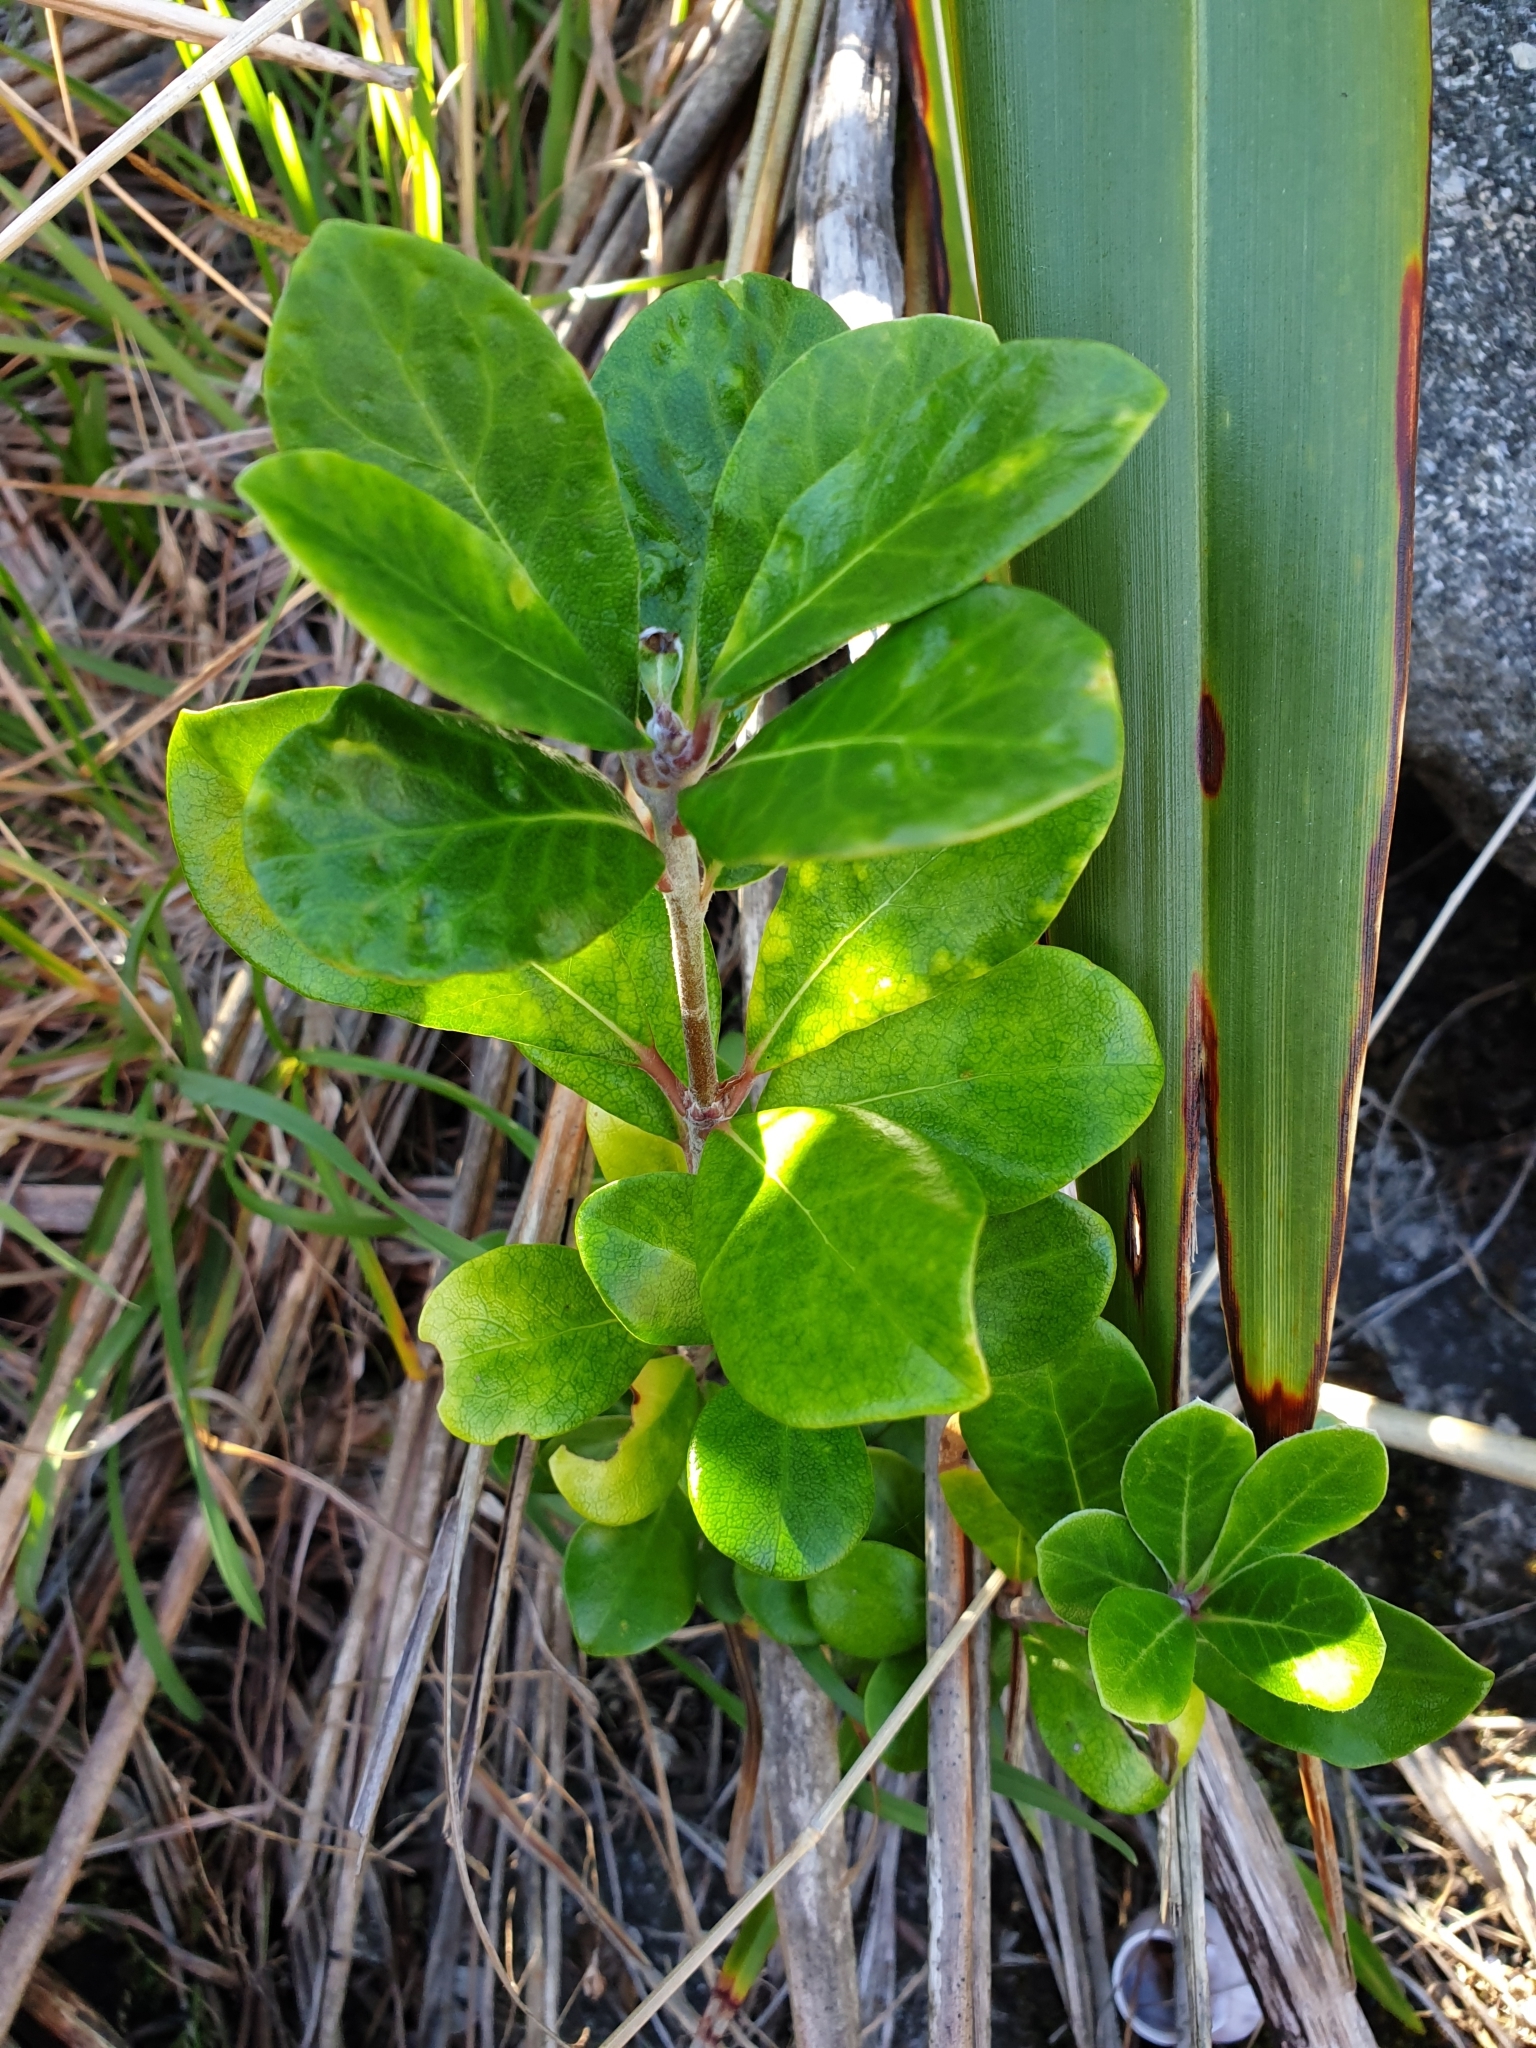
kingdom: Plantae
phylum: Tracheophyta
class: Magnoliopsida
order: Apiales
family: Pittosporaceae
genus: Pittosporum
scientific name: Pittosporum crassifolium
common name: Karo
